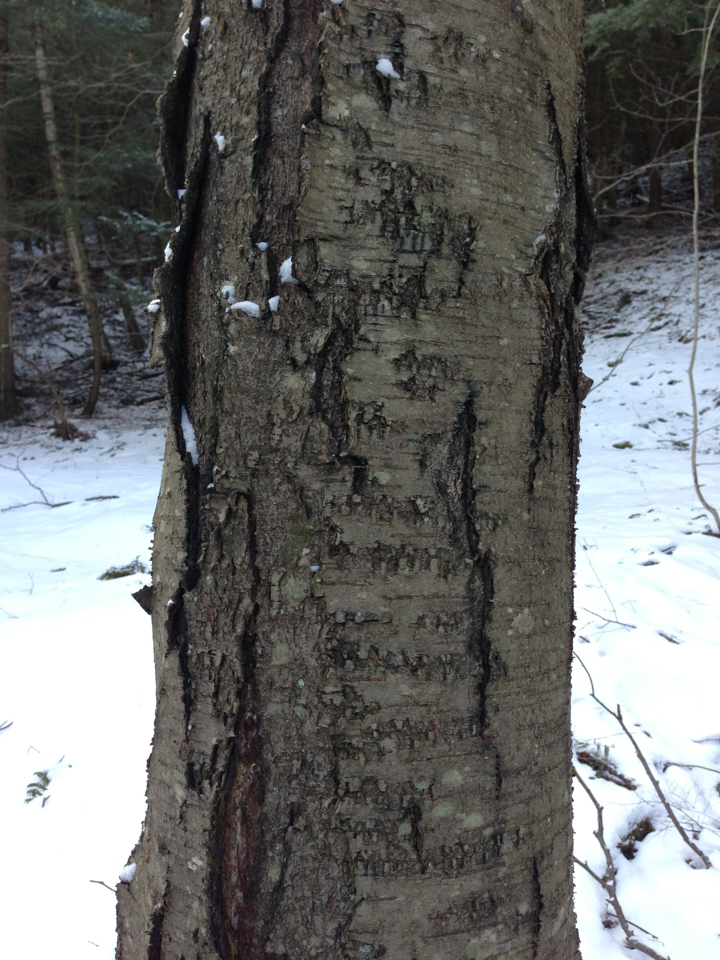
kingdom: Plantae
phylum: Tracheophyta
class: Magnoliopsida
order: Fagales
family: Betulaceae
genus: Betula
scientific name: Betula lenta
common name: Black birch
